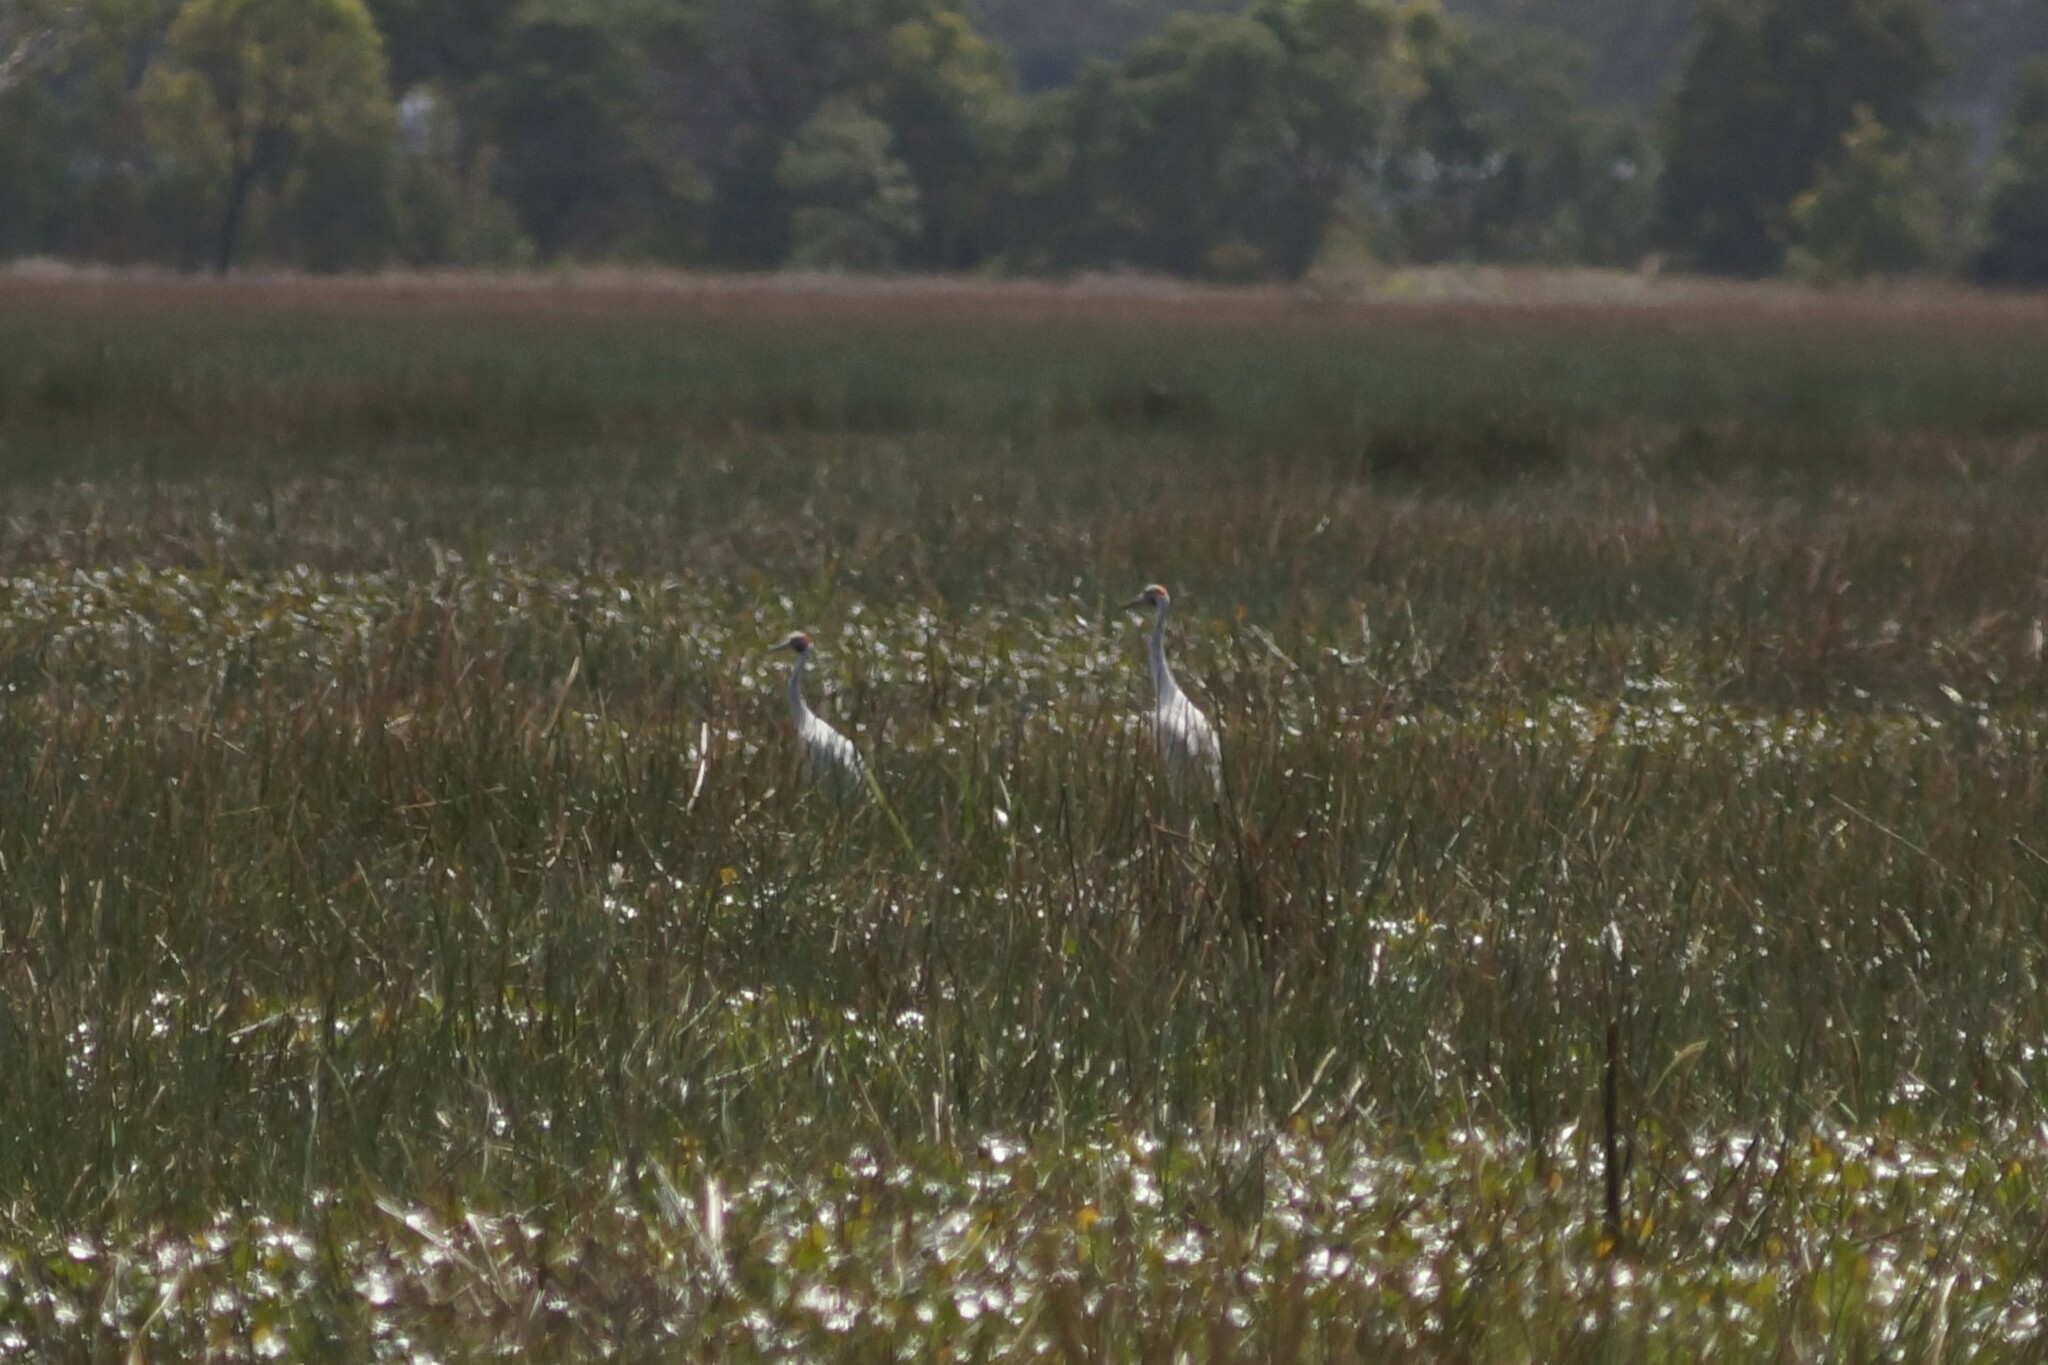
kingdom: Animalia
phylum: Chordata
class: Aves
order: Gruiformes
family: Gruidae
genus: Grus
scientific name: Grus rubicunda
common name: Brolga
